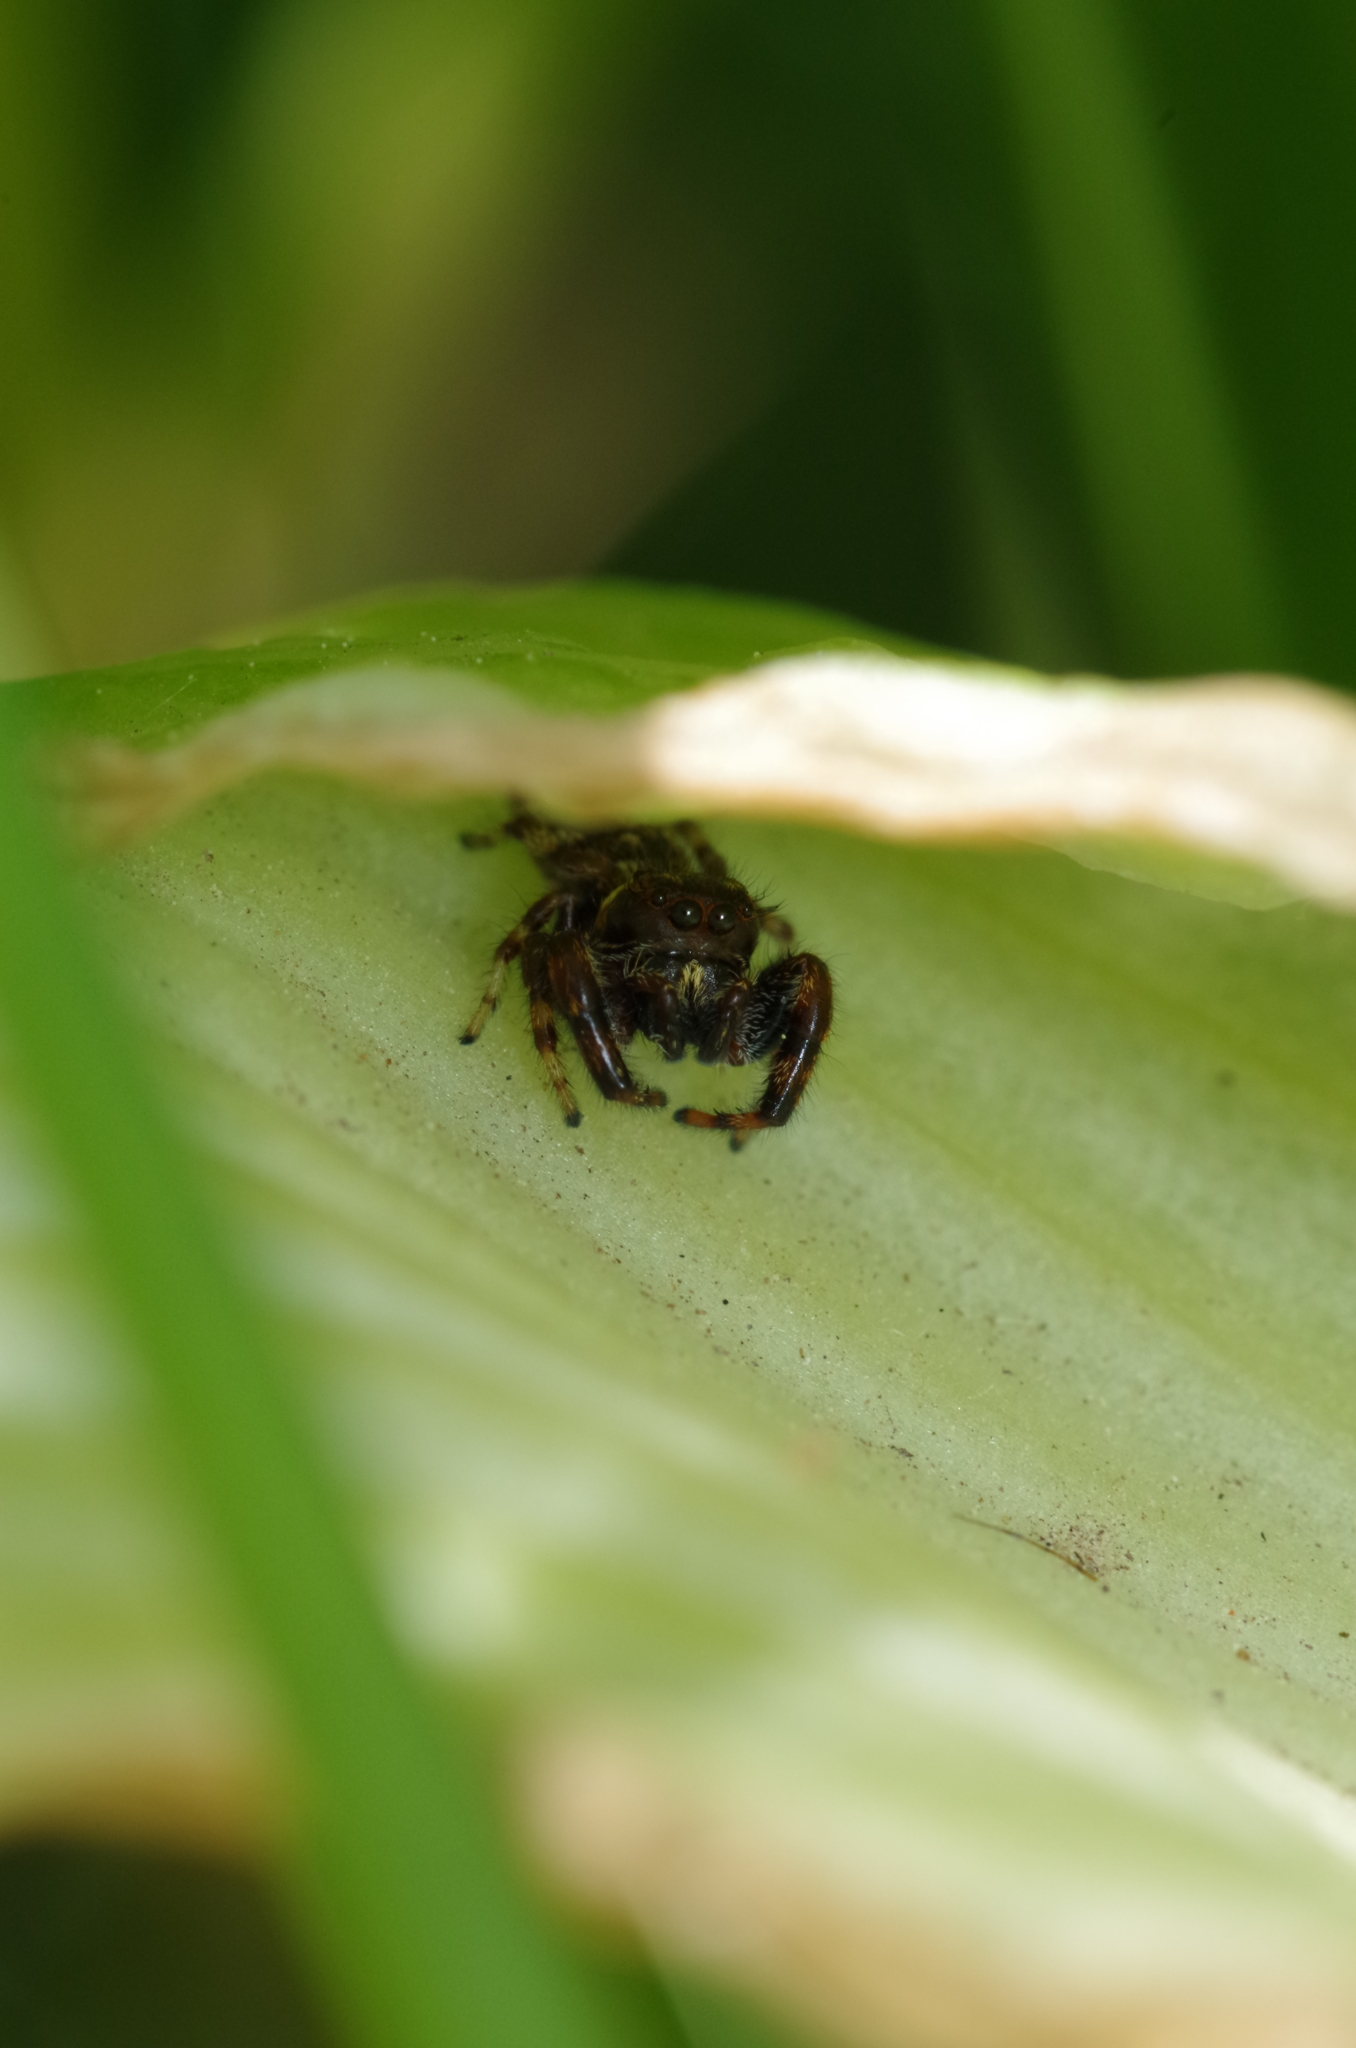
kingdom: Animalia
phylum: Arthropoda
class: Arachnida
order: Araneae
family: Salticidae
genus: Macaroeris
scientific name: Macaroeris nidicolens
